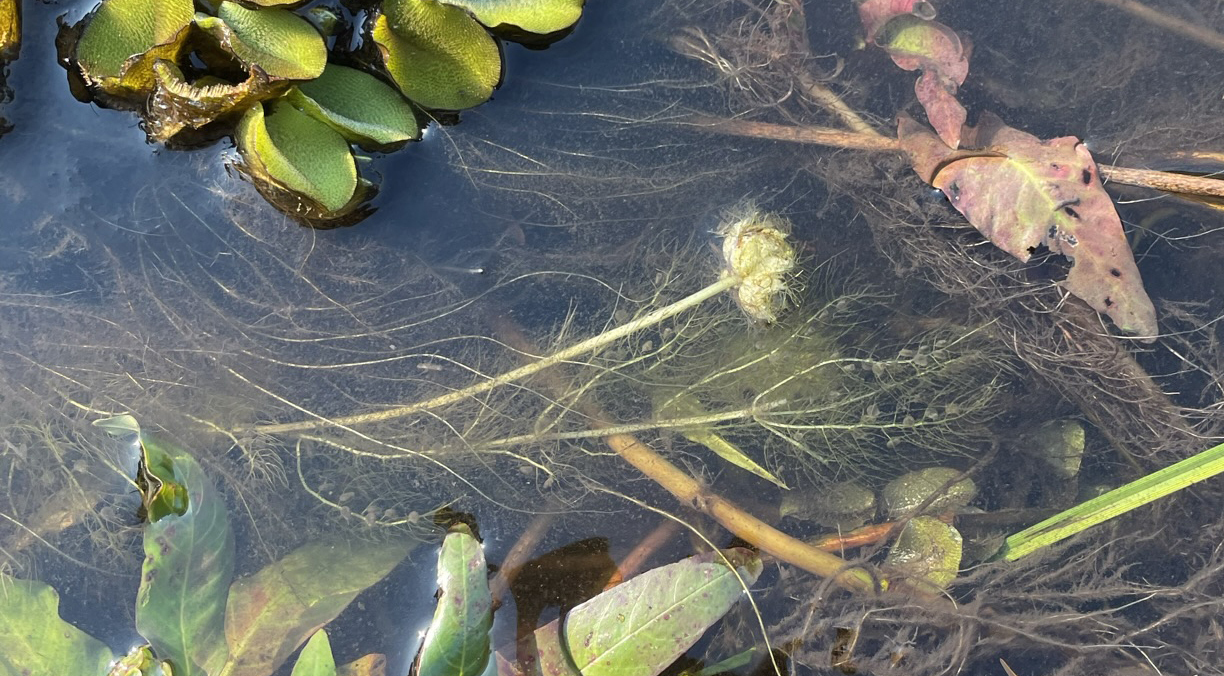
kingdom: Plantae
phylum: Tracheophyta
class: Magnoliopsida
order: Lamiales
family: Lentibulariaceae
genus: Utricularia
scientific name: Utricularia stellaris
